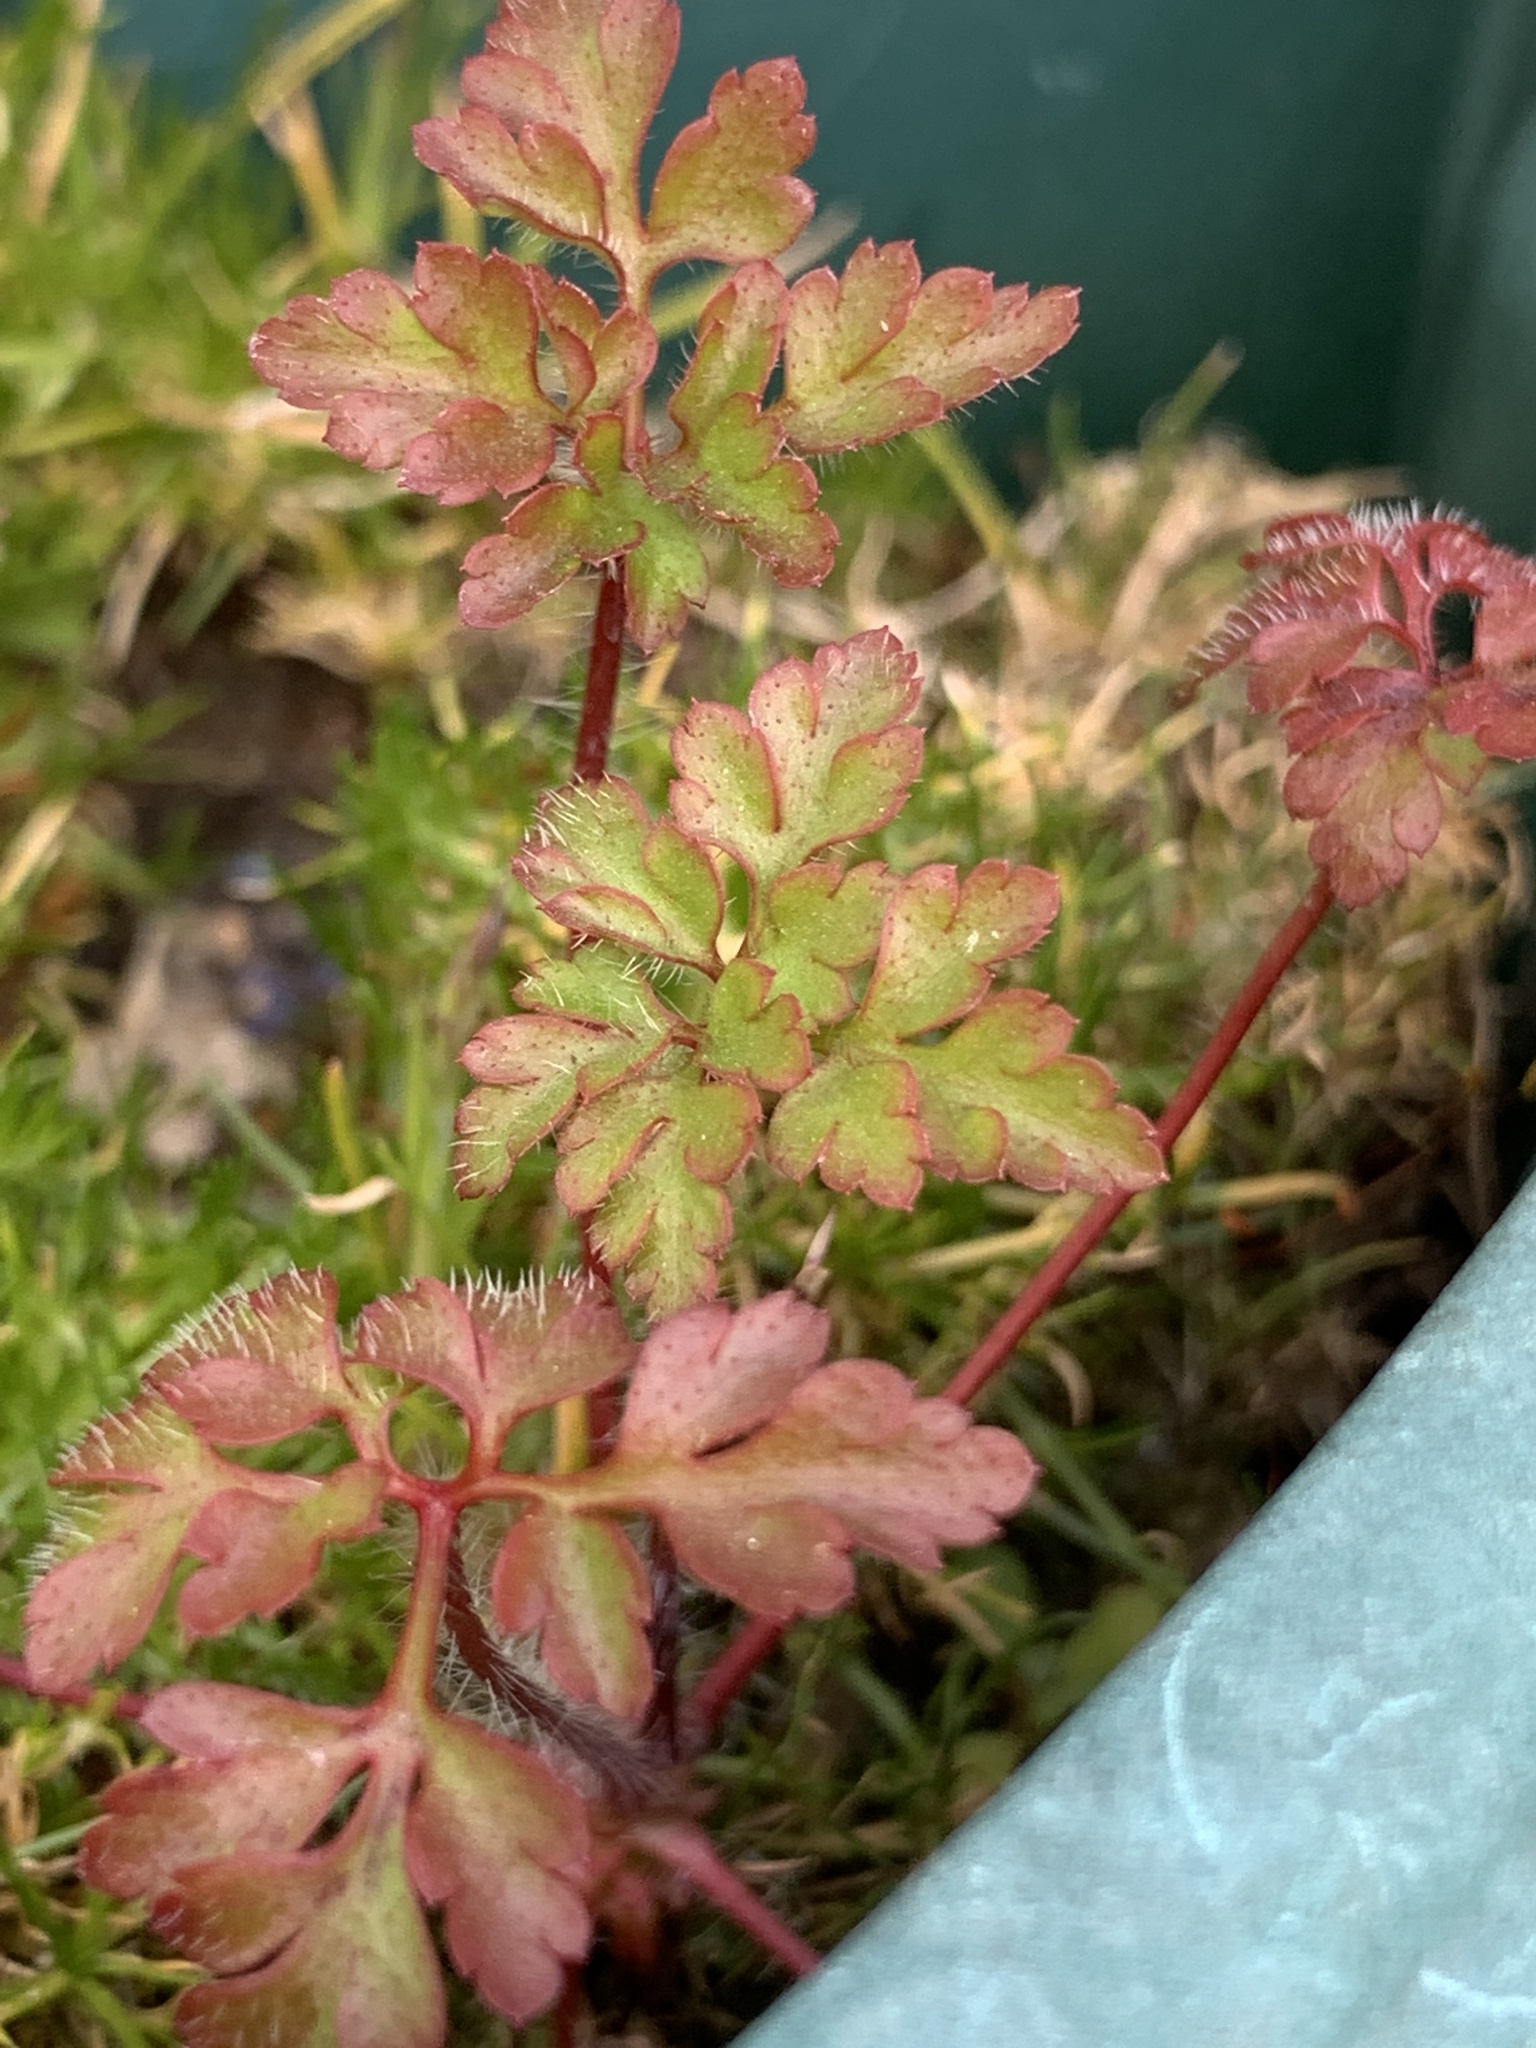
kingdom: Plantae
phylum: Tracheophyta
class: Magnoliopsida
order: Geraniales
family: Geraniaceae
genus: Geranium
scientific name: Geranium robertianum
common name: Herb-robert
